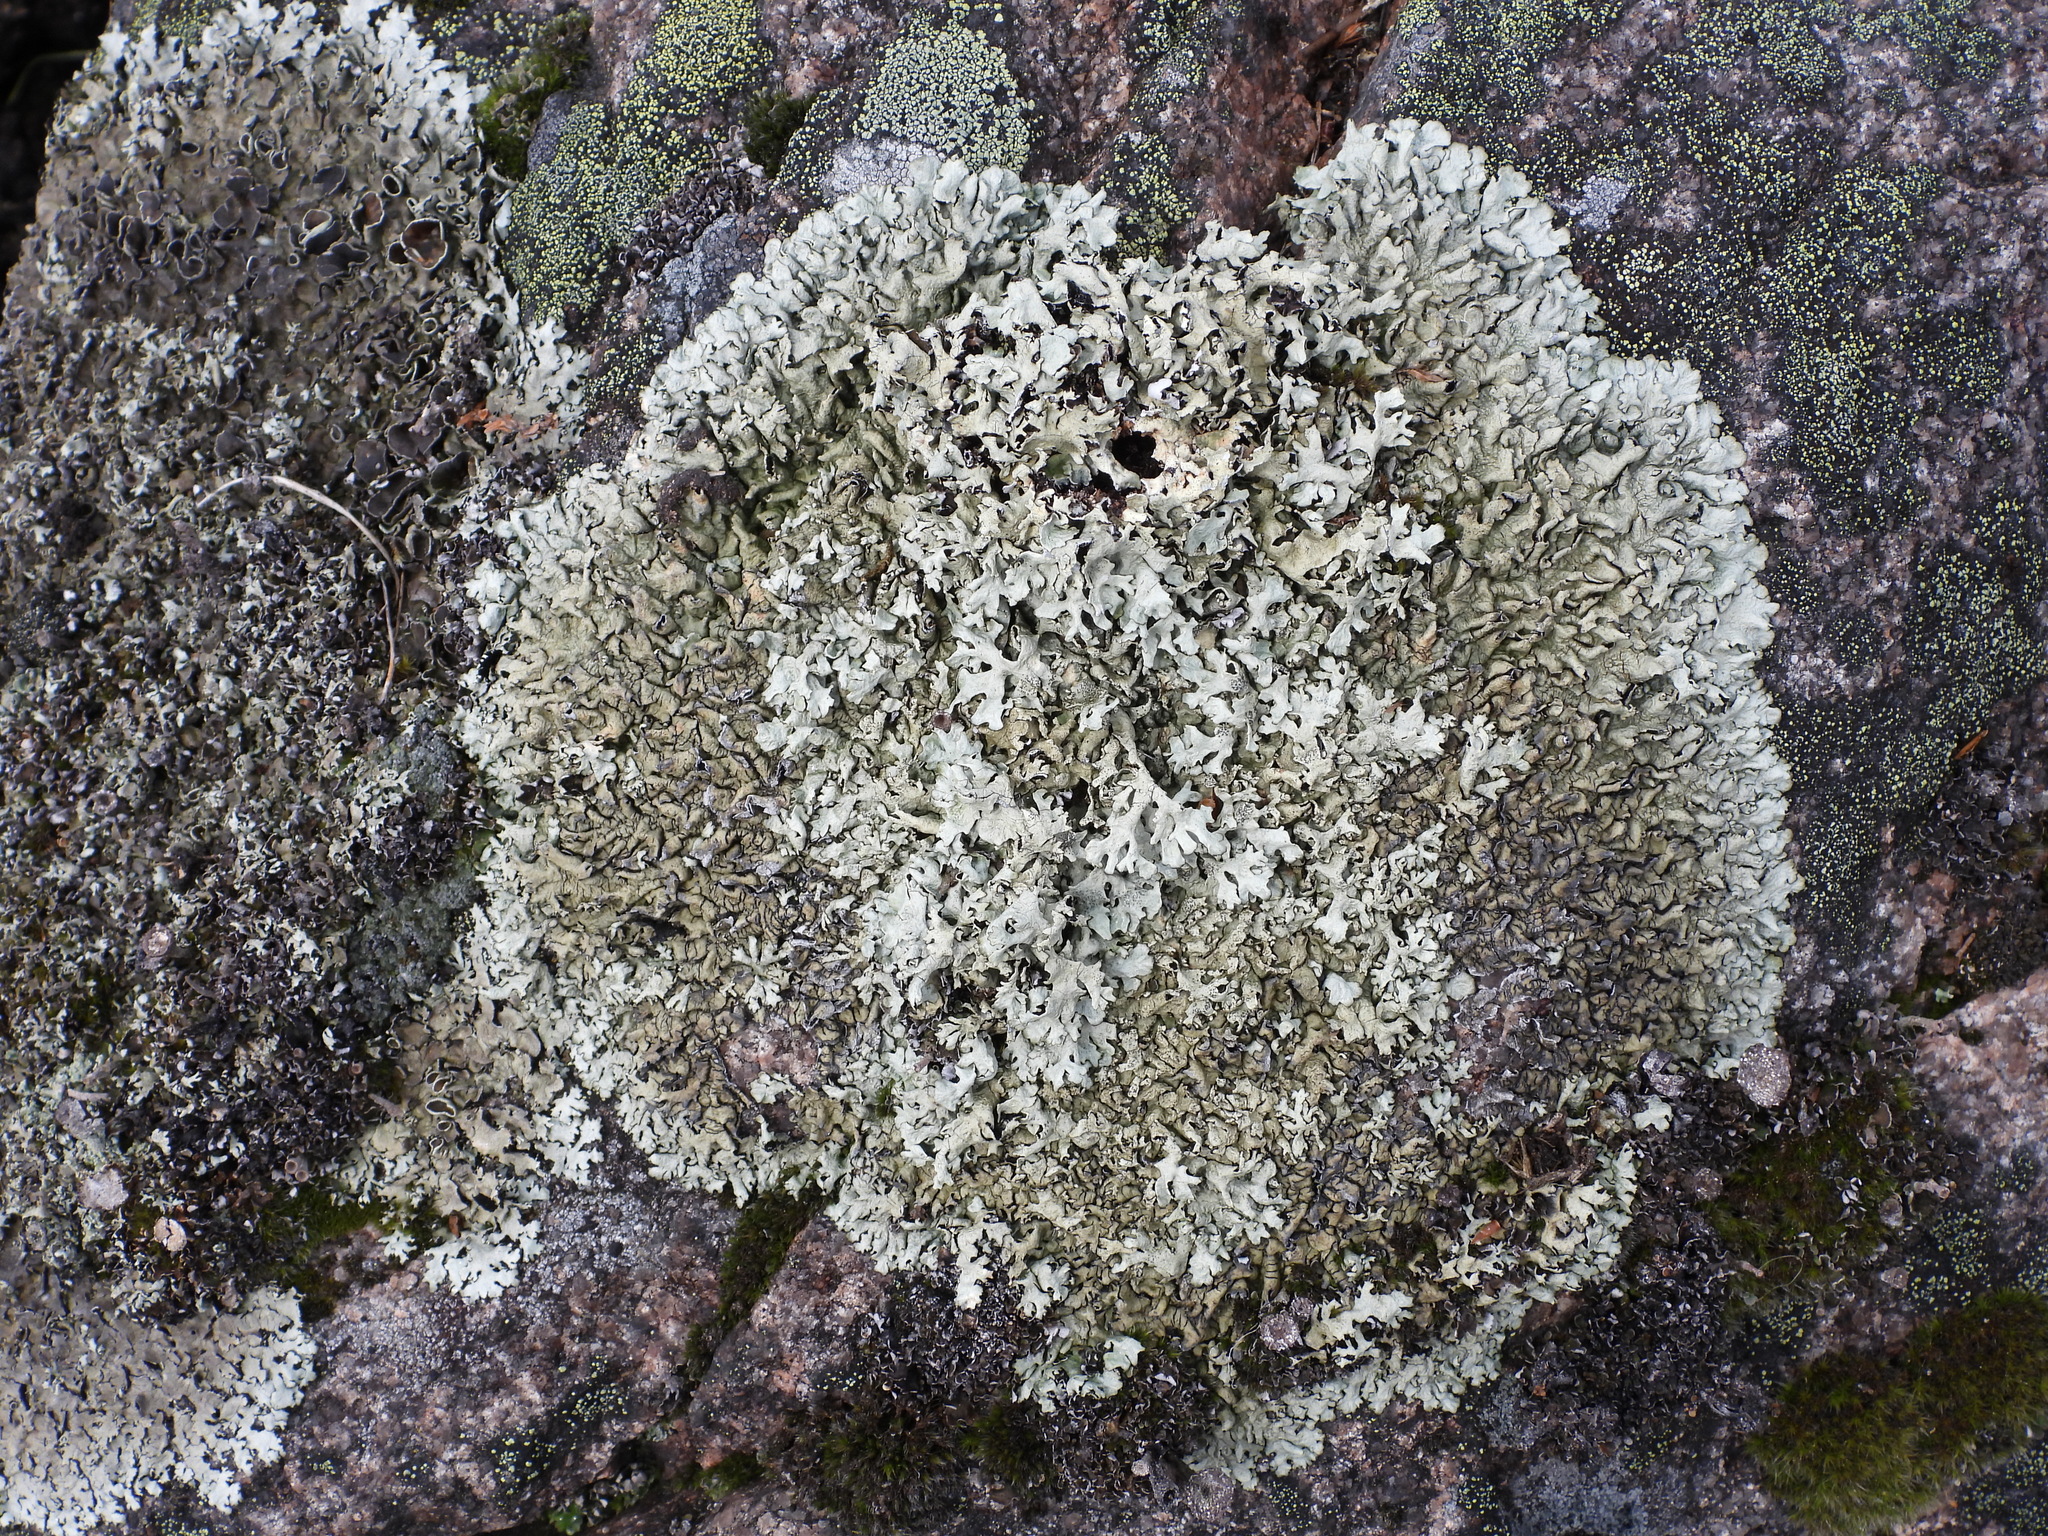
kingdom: Fungi
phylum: Ascomycota
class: Lecanoromycetes
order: Lecanorales
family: Parmeliaceae
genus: Xanthoparmelia
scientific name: Xanthoparmelia stenophylla
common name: Shingled rock shield
